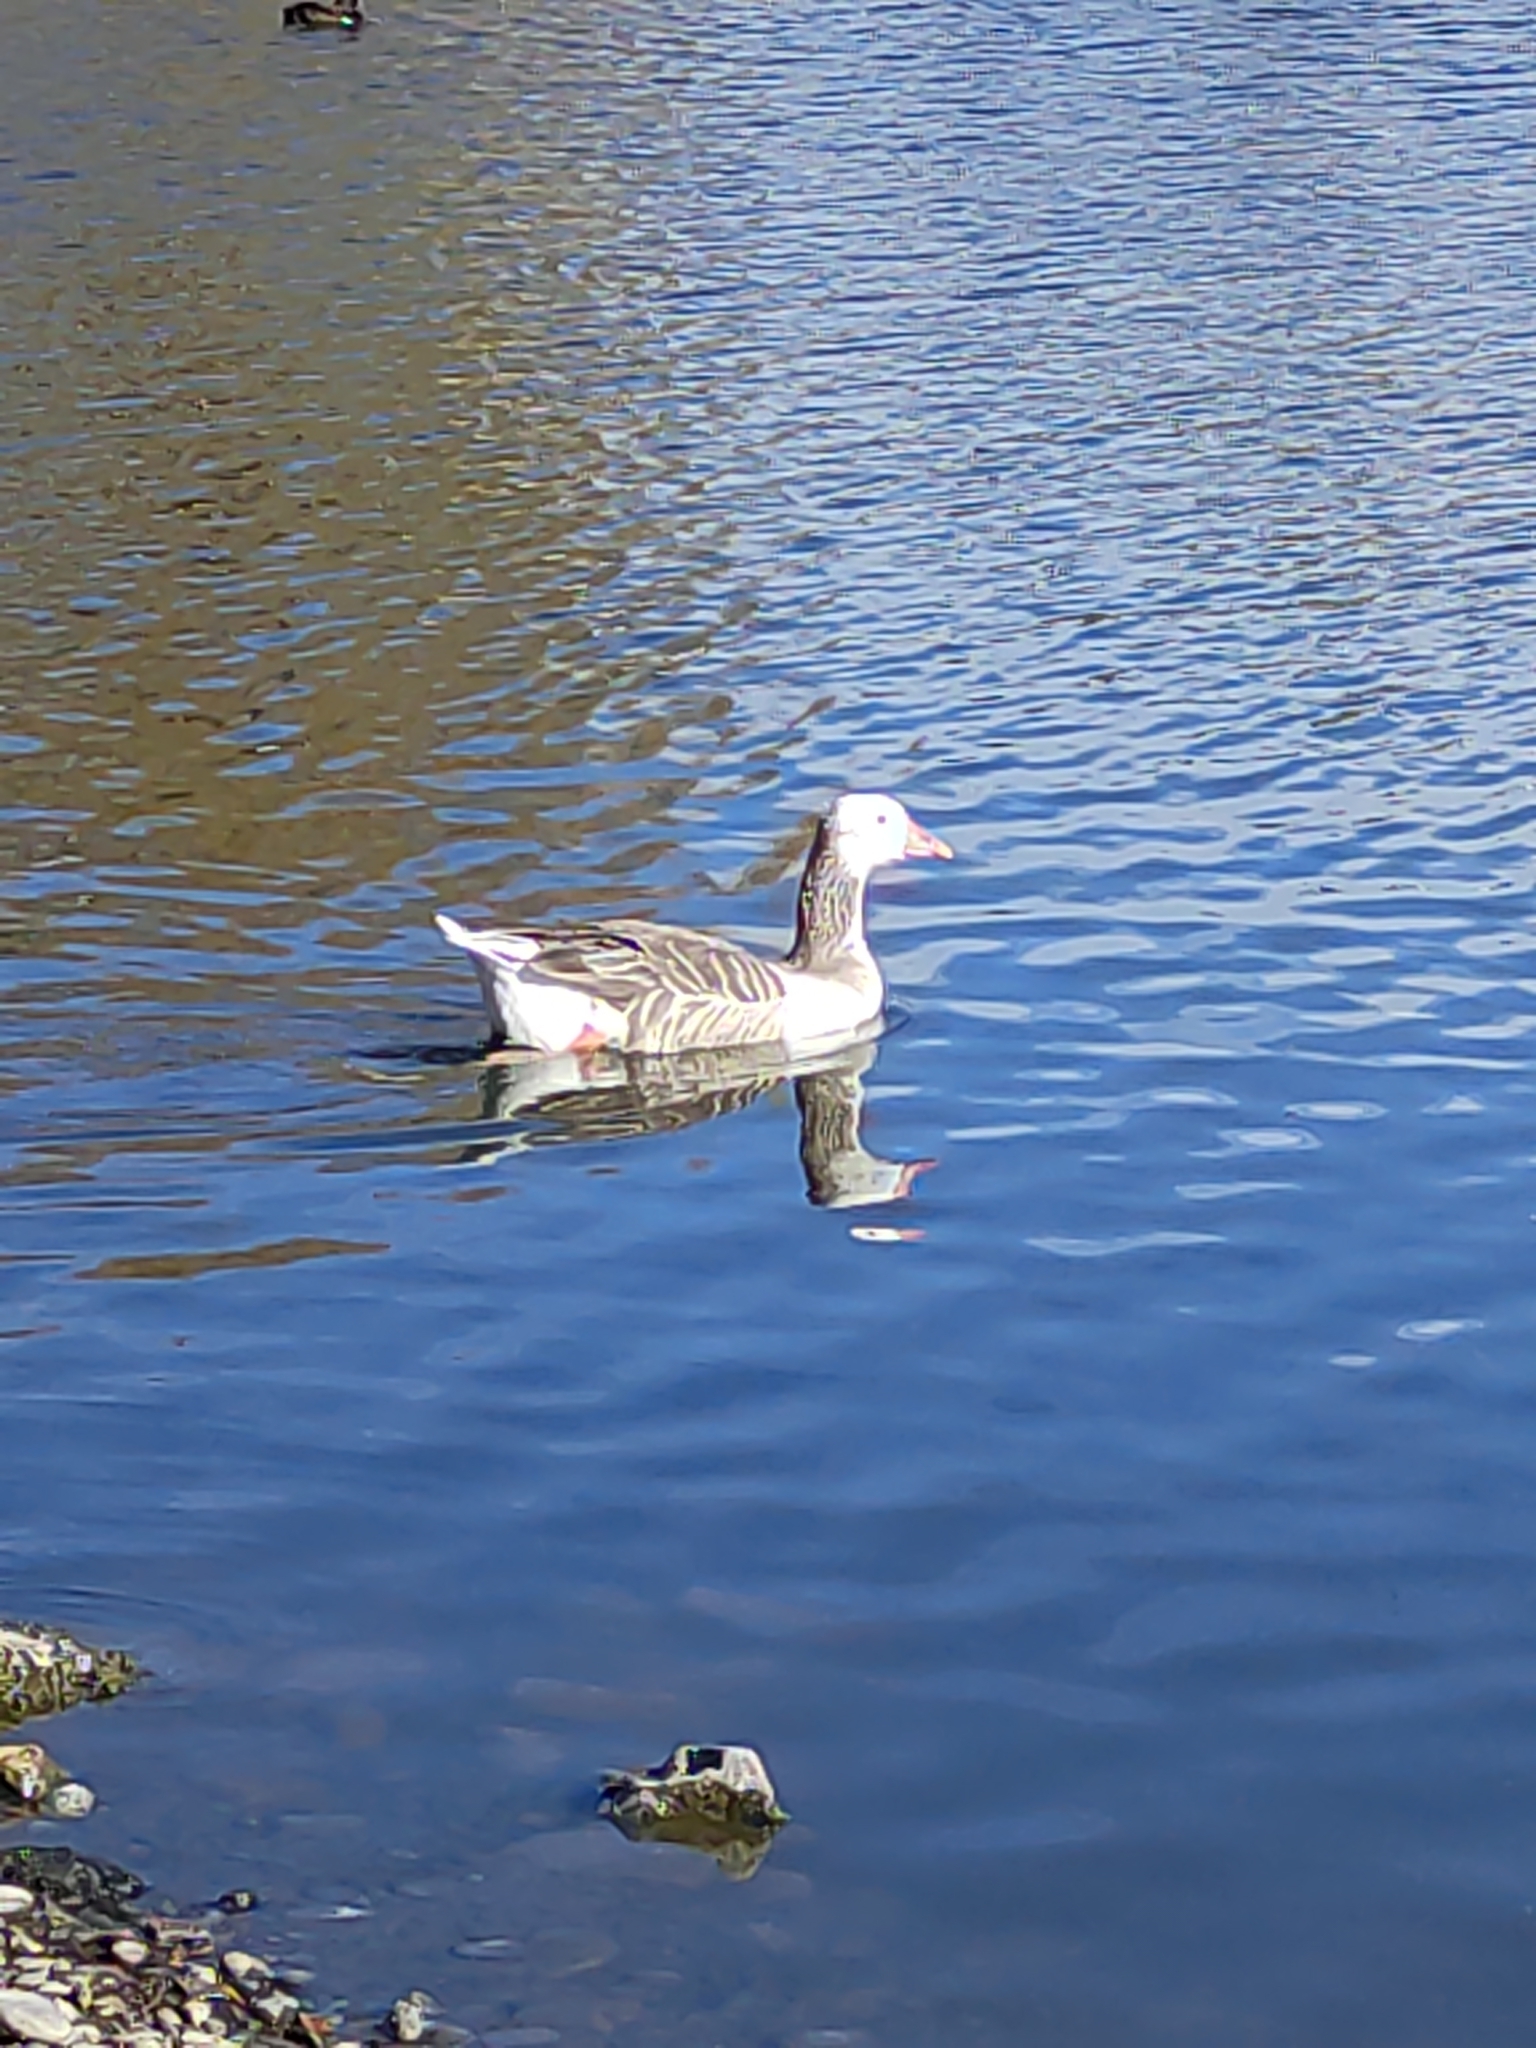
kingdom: Animalia
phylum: Chordata
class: Aves
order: Anseriformes
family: Anatidae
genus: Anser
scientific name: Anser anser
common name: Greylag goose
